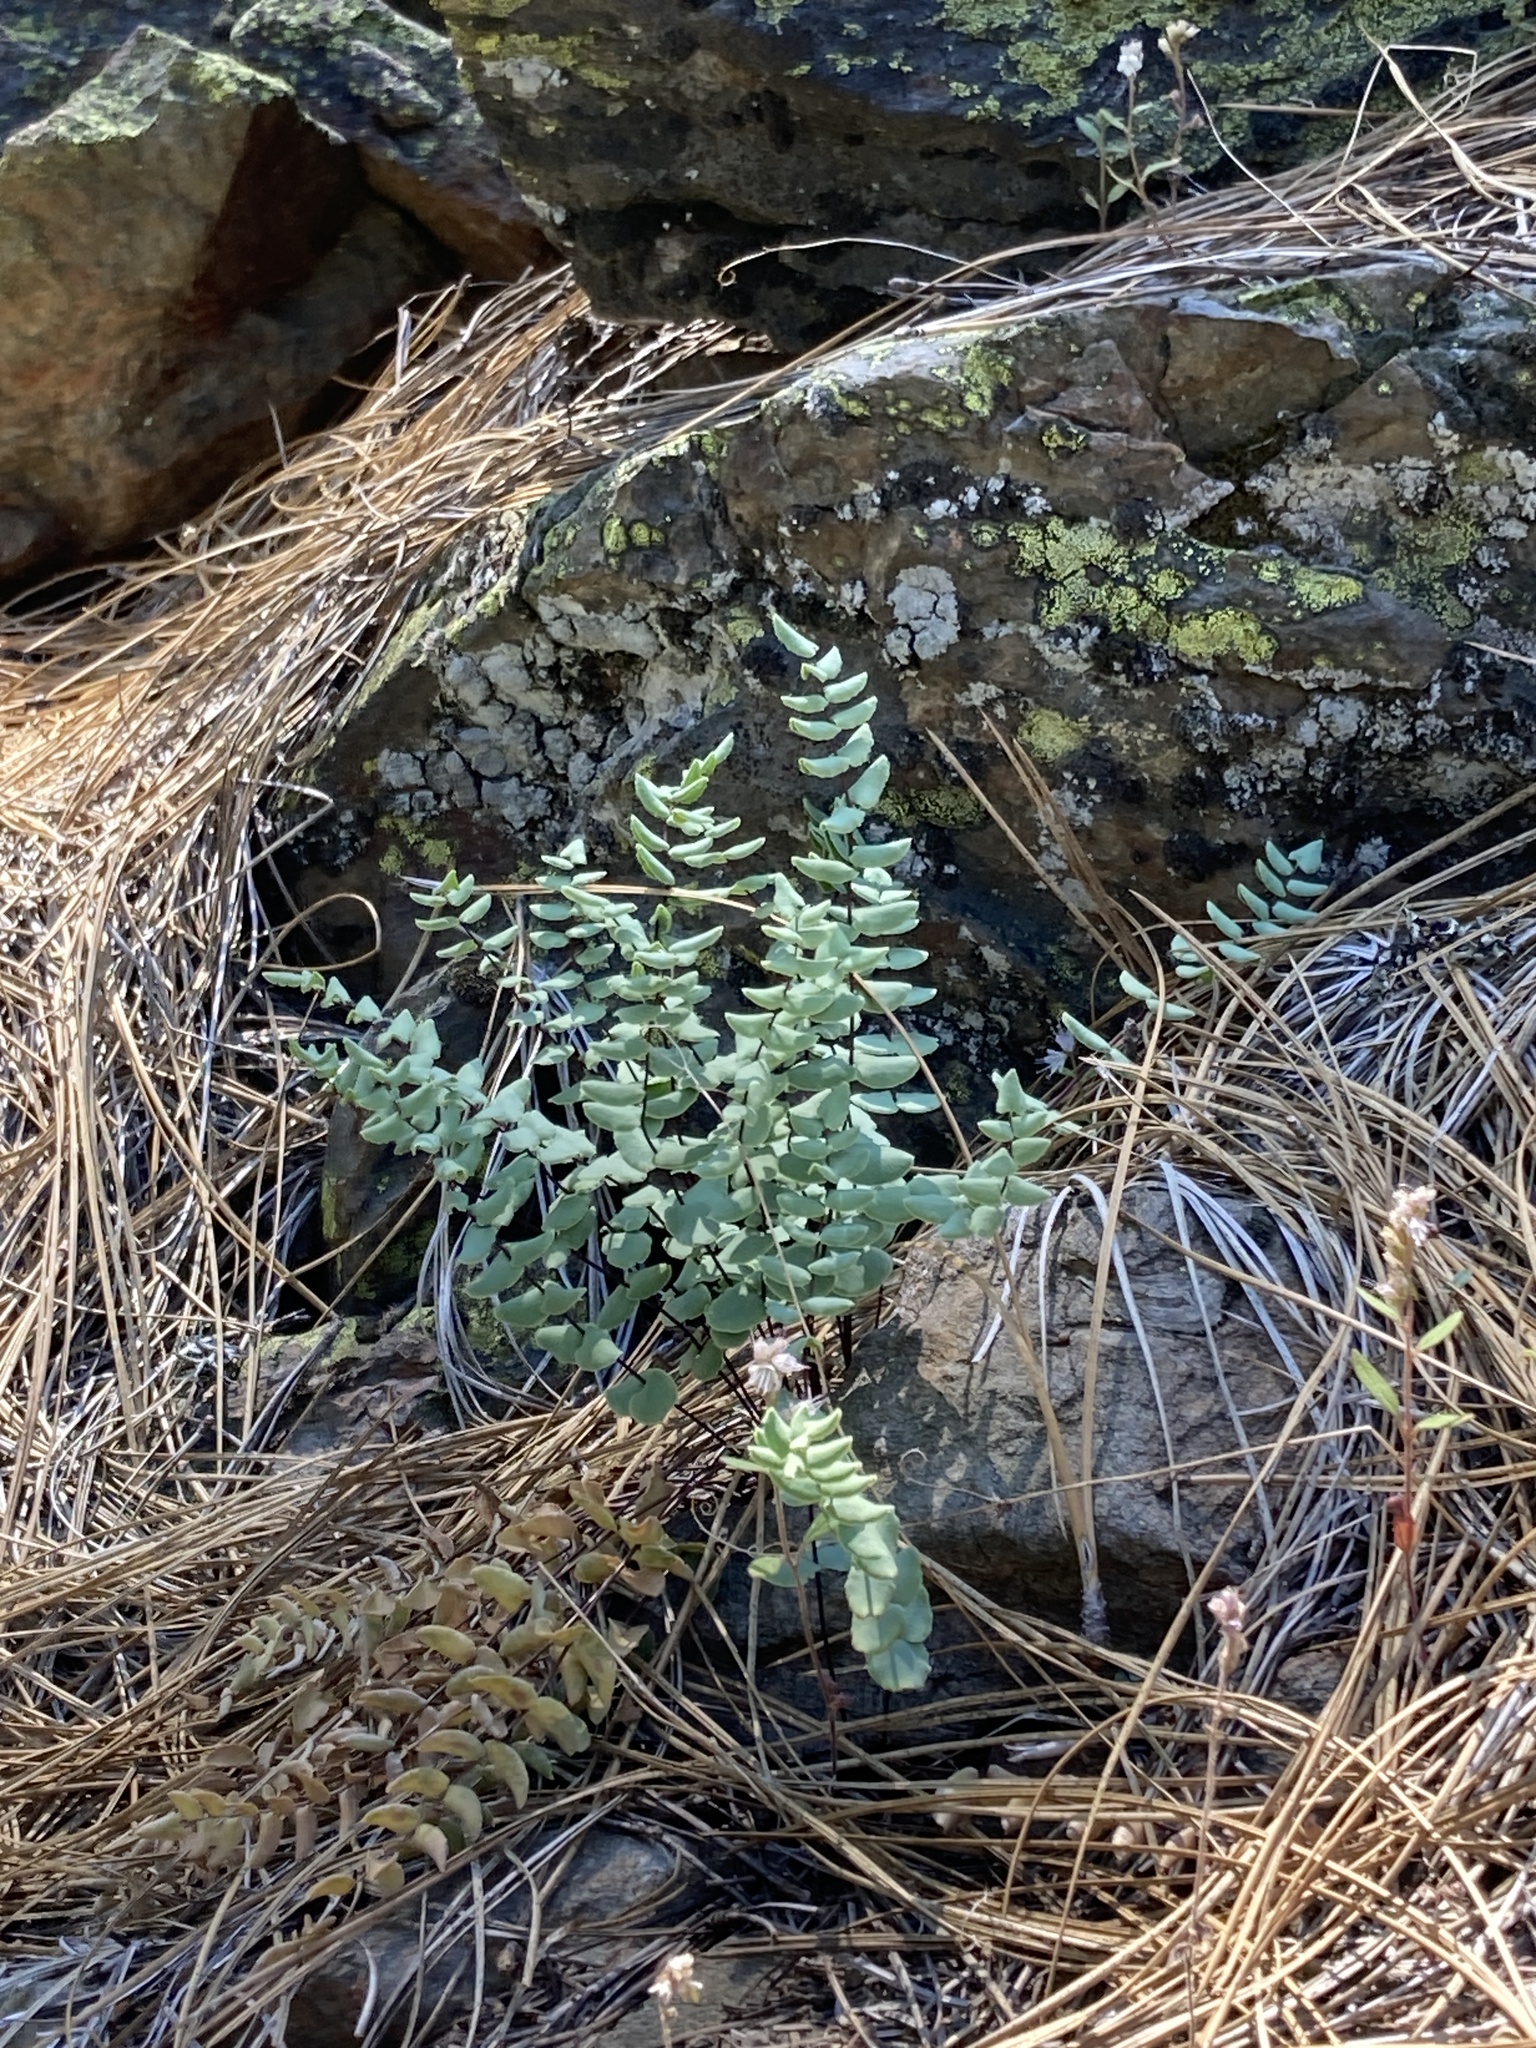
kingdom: Plantae
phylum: Tracheophyta
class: Polypodiopsida
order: Polypodiales
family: Pteridaceae
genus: Pellaea
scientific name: Pellaea bridgesii
